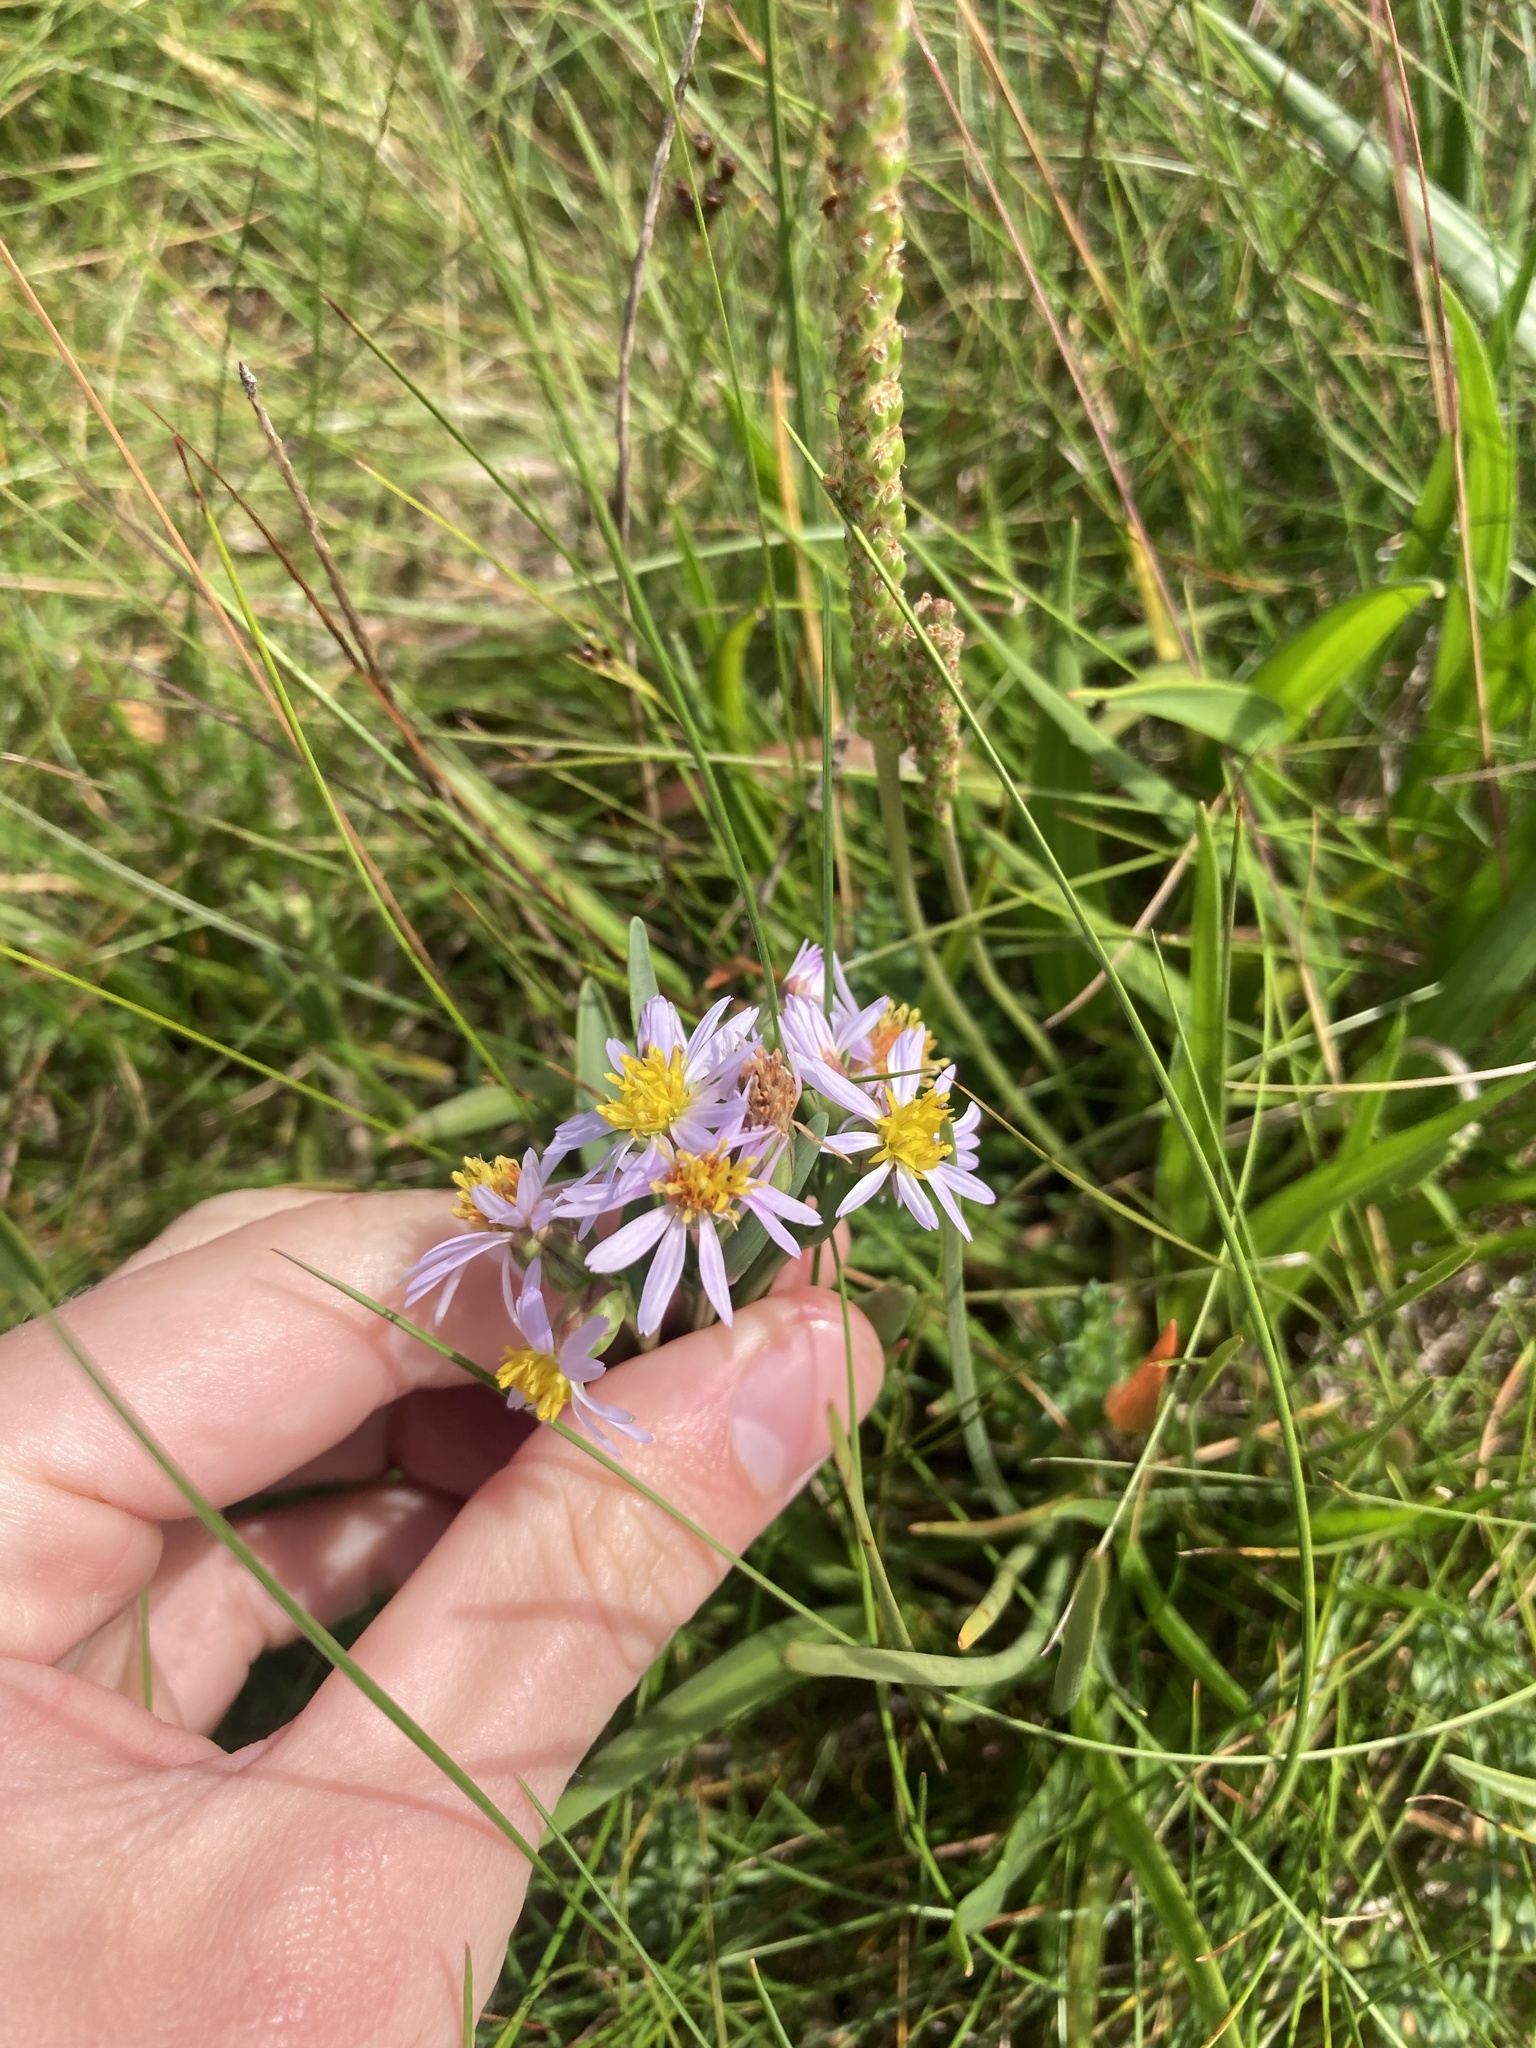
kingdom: Plantae
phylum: Tracheophyta
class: Magnoliopsida
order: Asterales
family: Asteraceae
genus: Tripolium
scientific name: Tripolium pannonicum
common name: Sea aster
